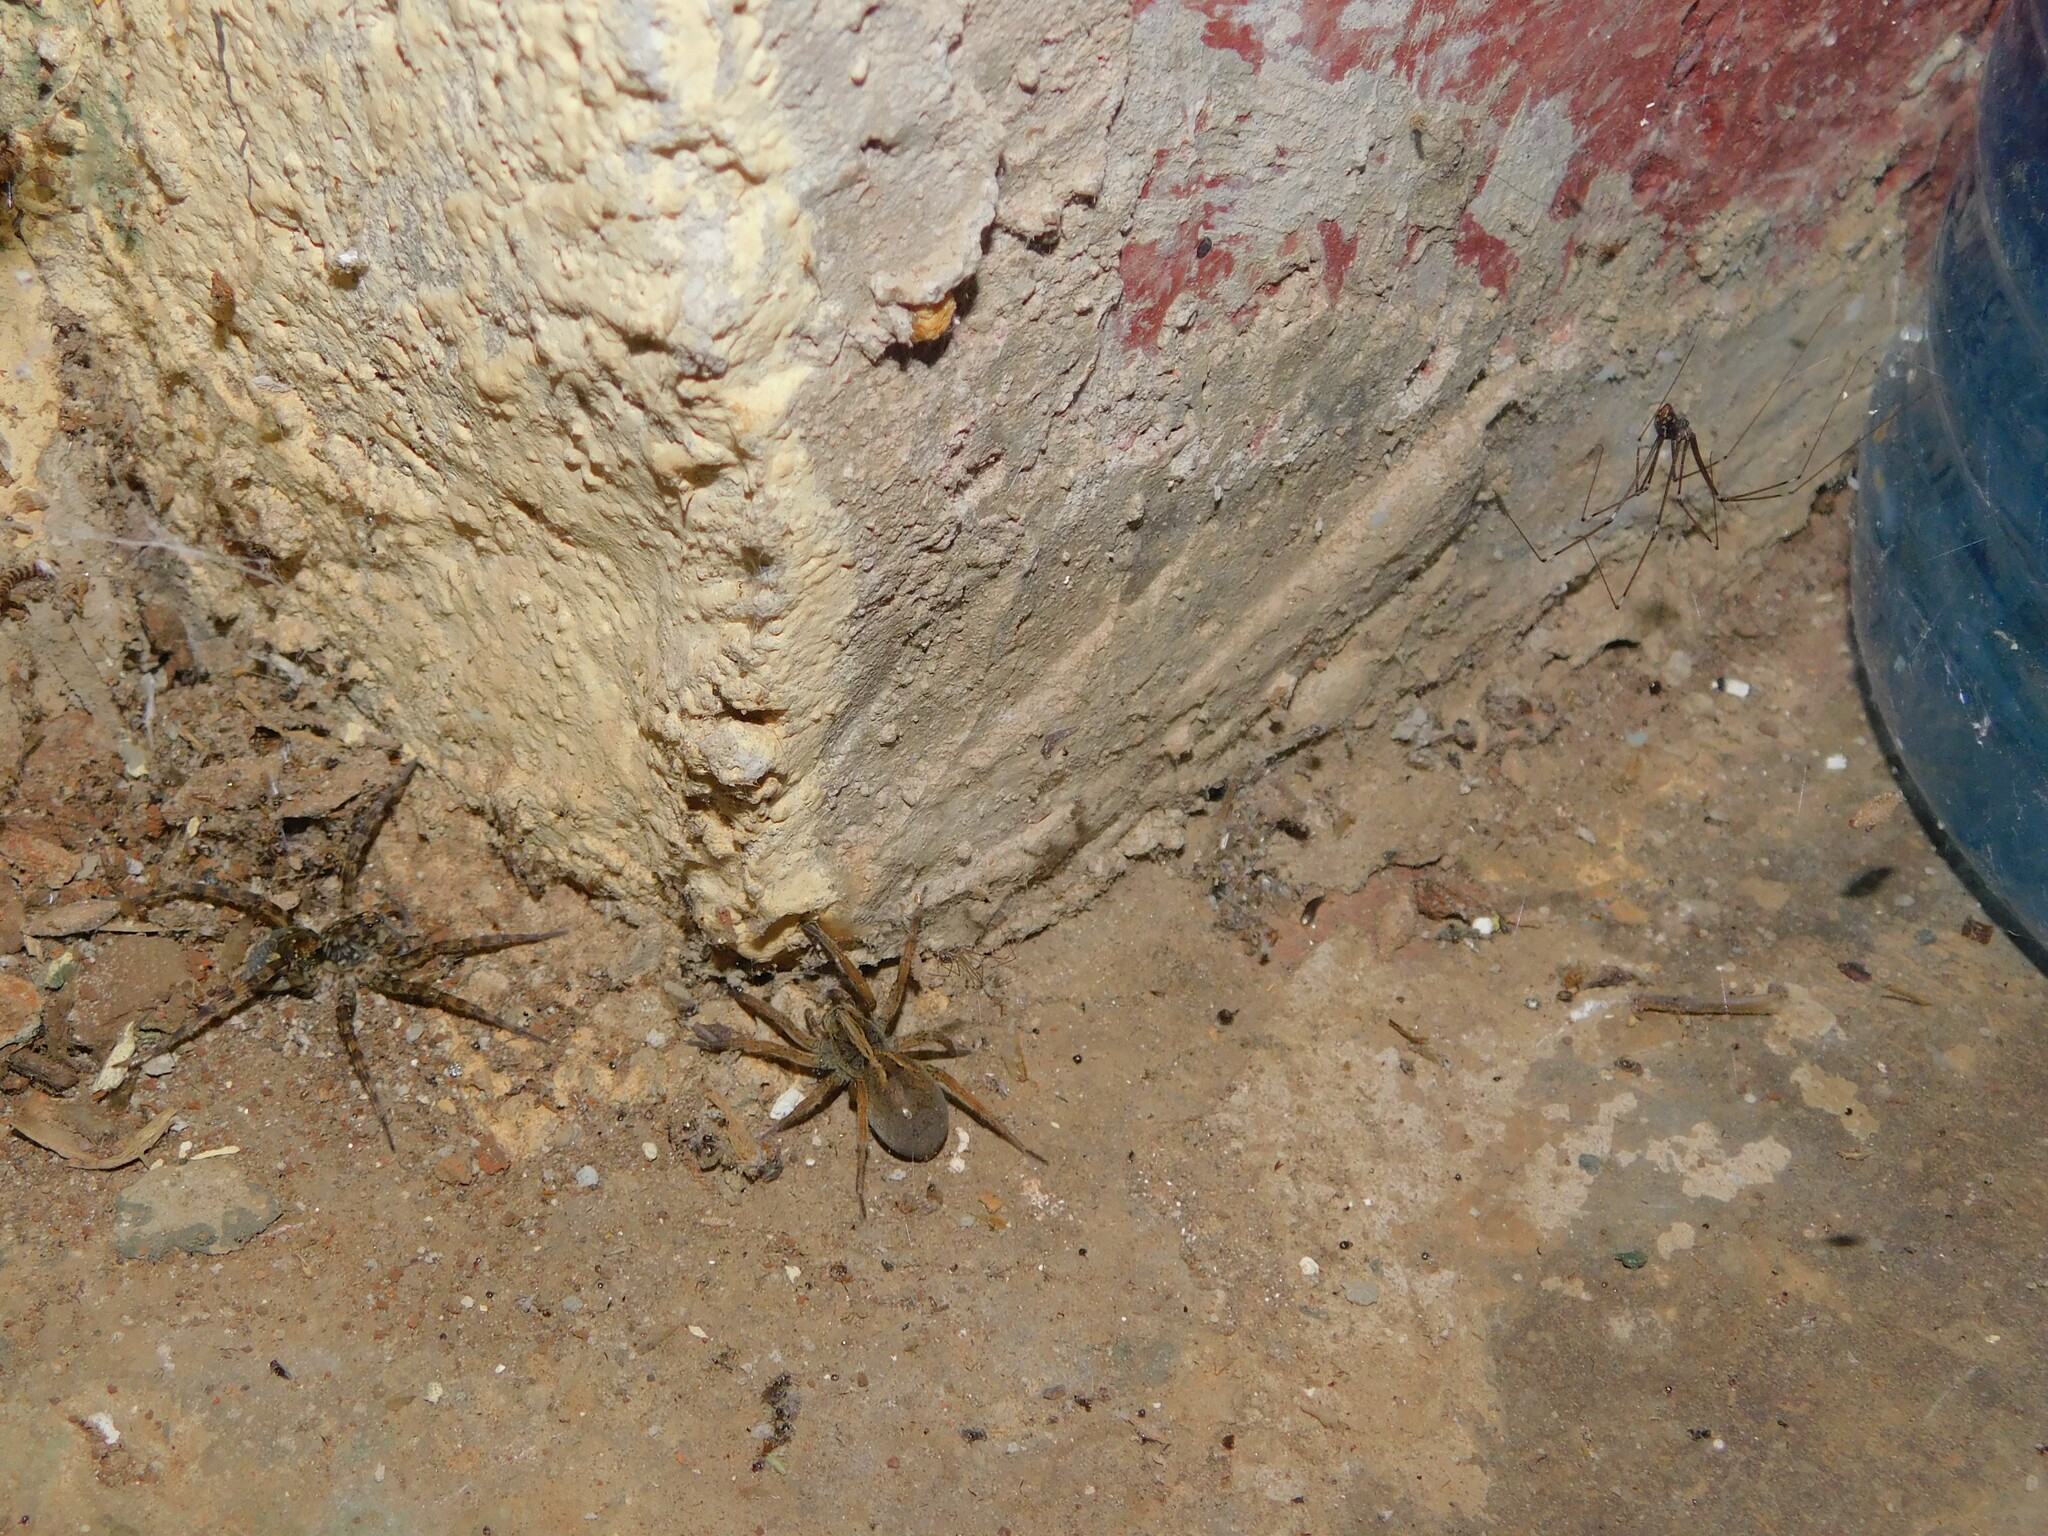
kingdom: Animalia
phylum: Arthropoda
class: Arachnida
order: Araneae
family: Lycosidae
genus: Ocyale
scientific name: Ocyale guttata
